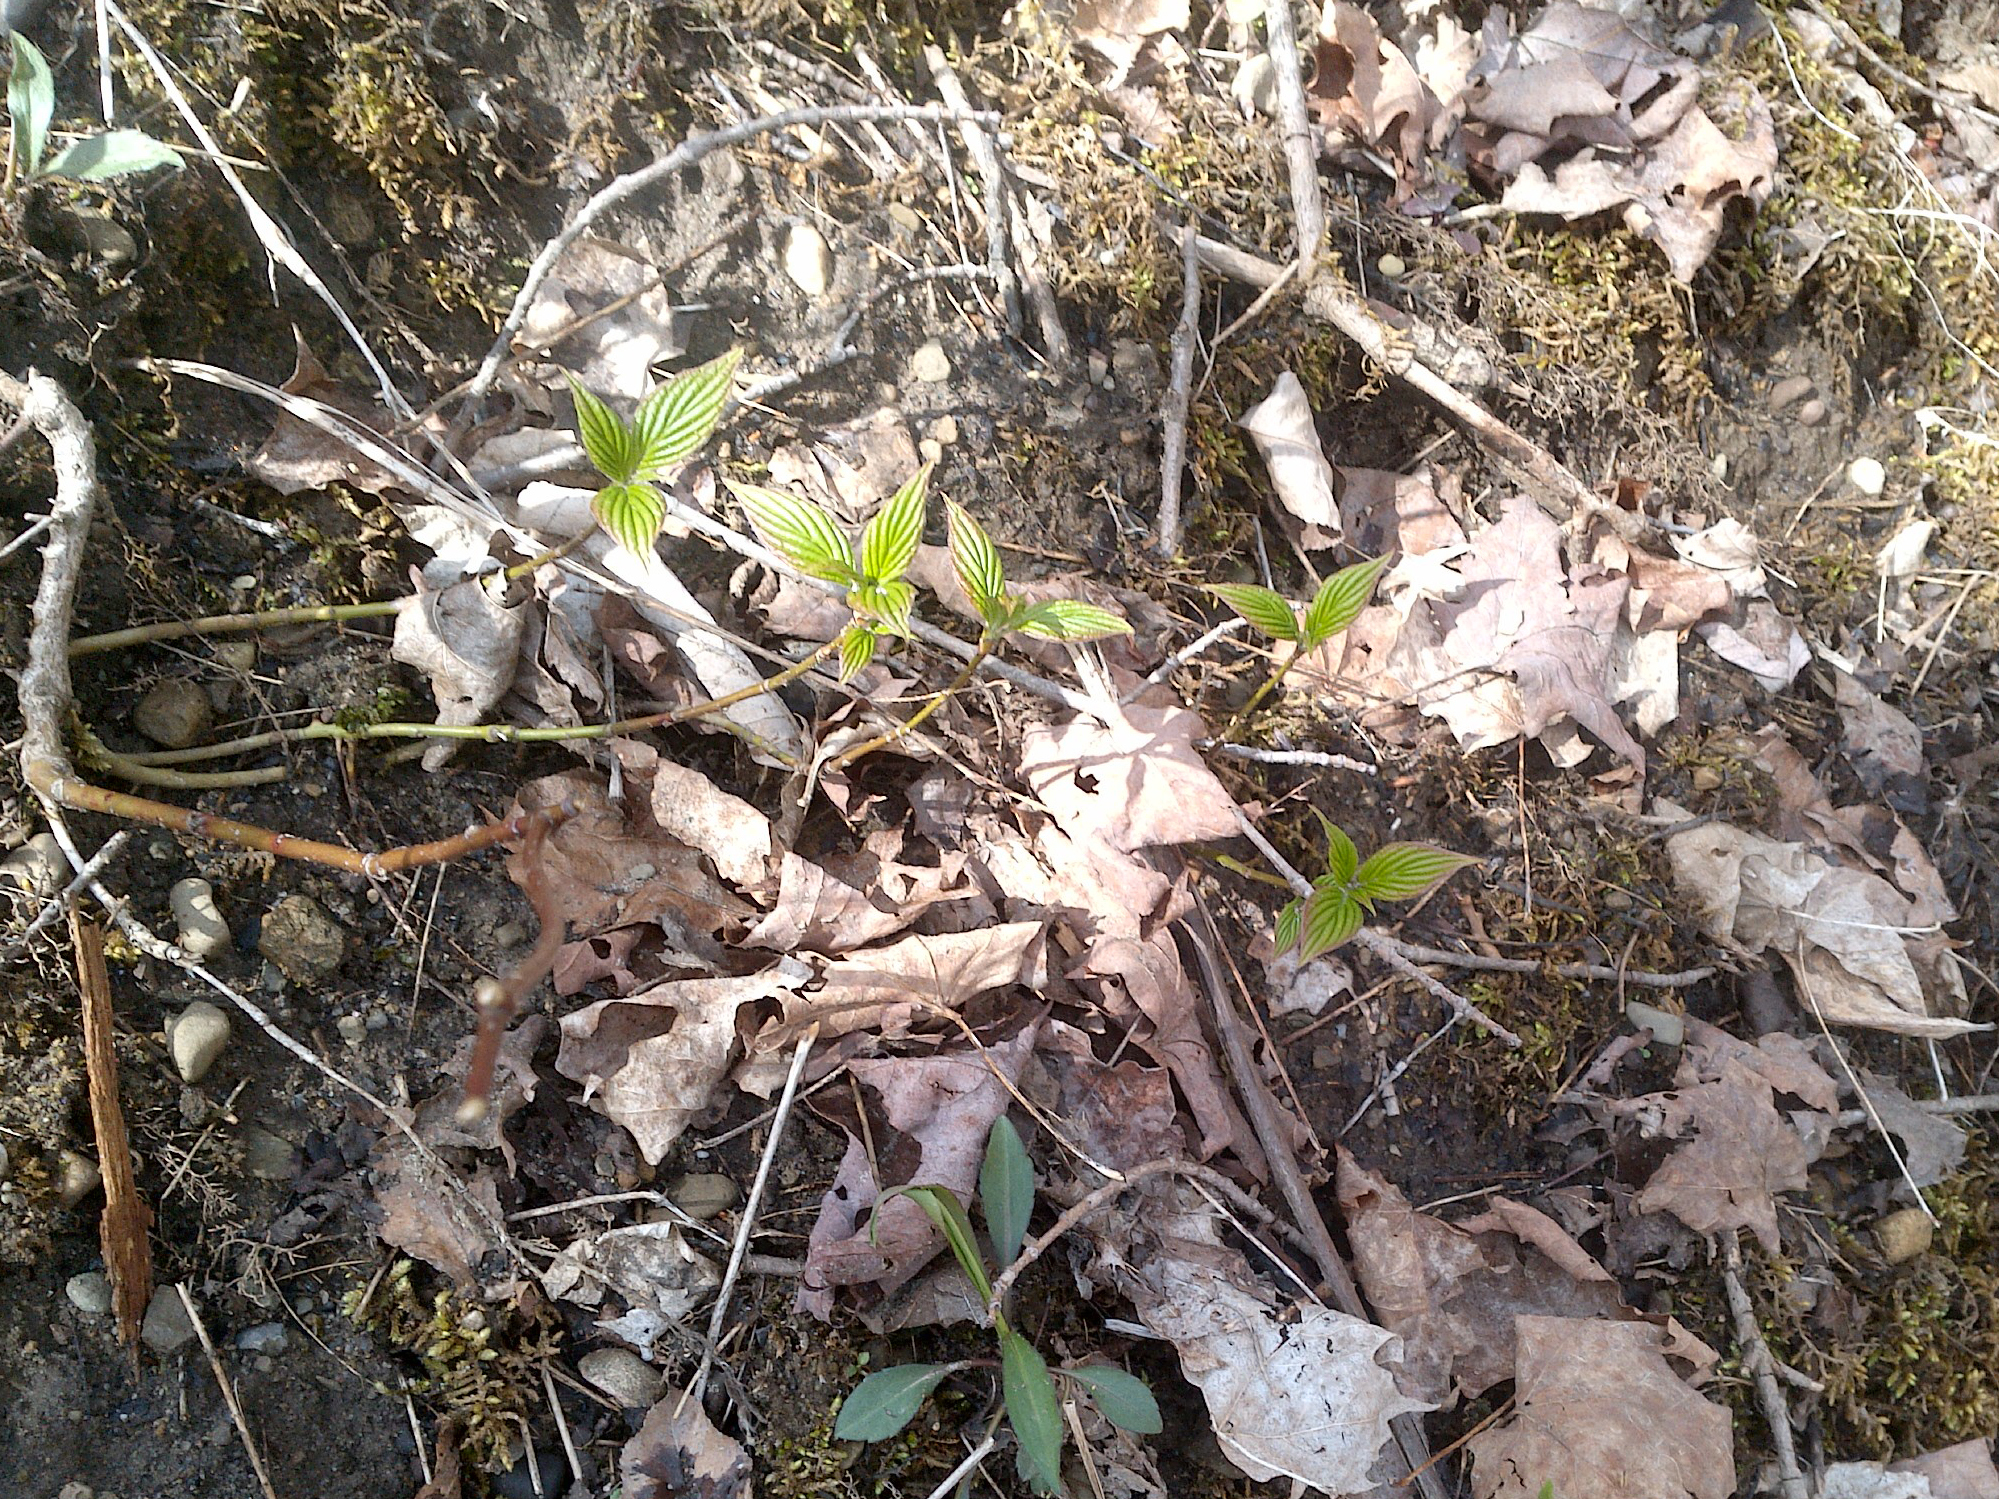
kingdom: Plantae
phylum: Tracheophyta
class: Magnoliopsida
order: Cornales
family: Cornaceae
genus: Cornus
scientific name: Cornus alternifolia
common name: Pagoda dogwood
